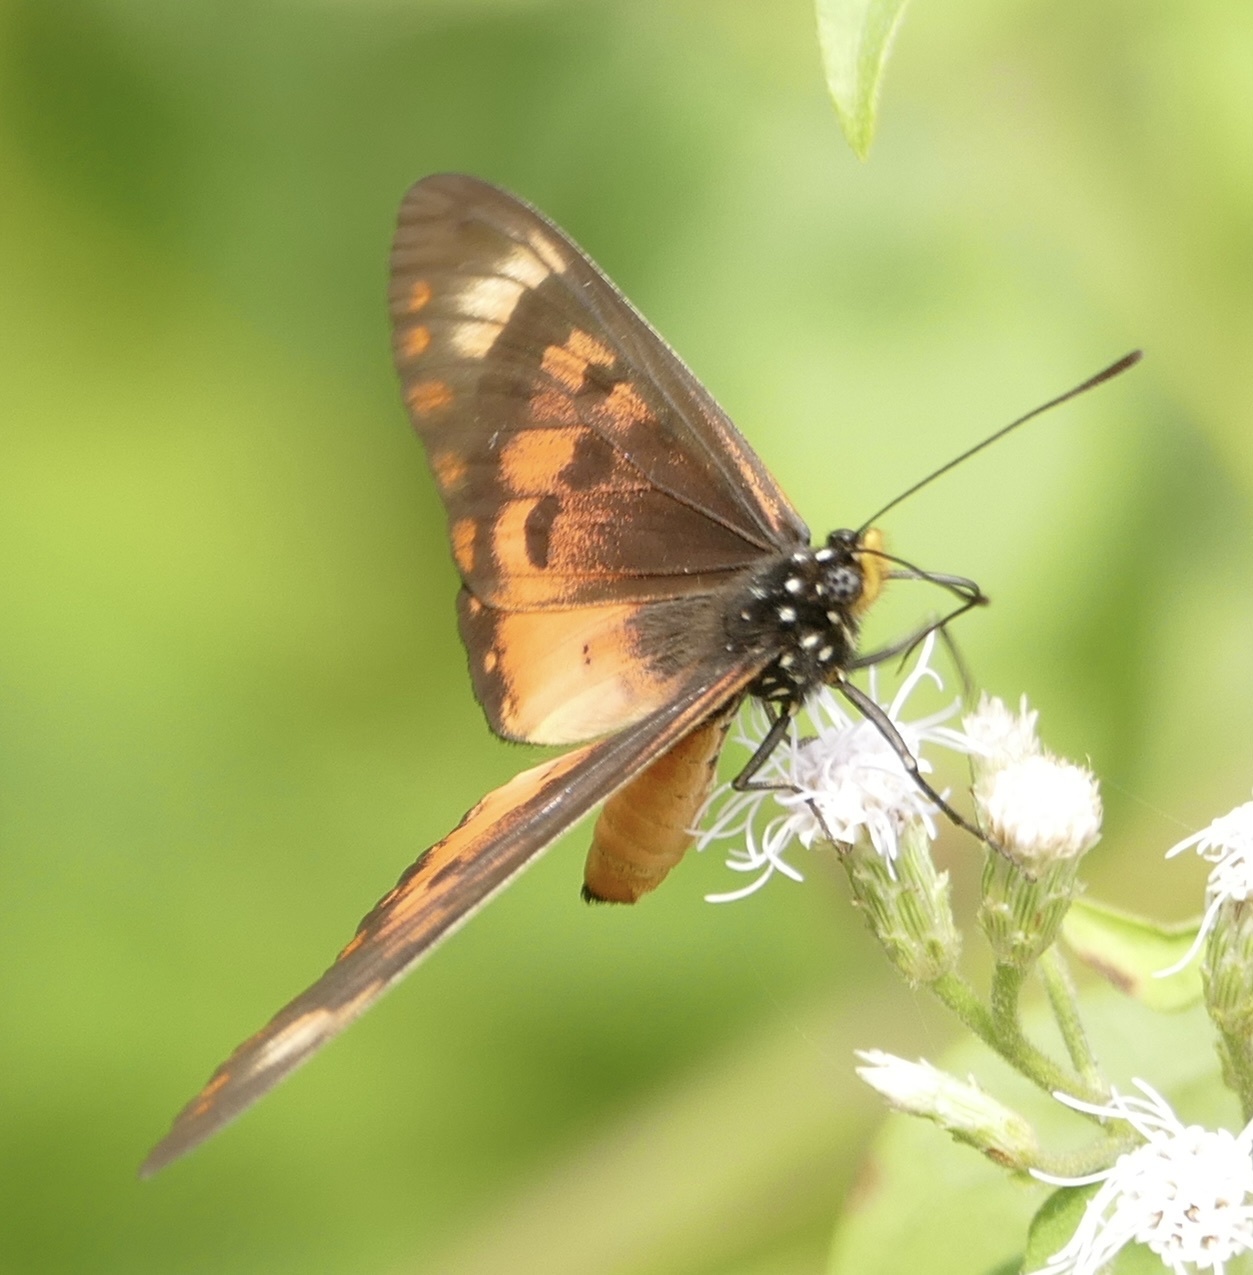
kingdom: Animalia
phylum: Arthropoda
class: Insecta
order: Lepidoptera
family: Nymphalidae
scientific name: Nymphalidae
